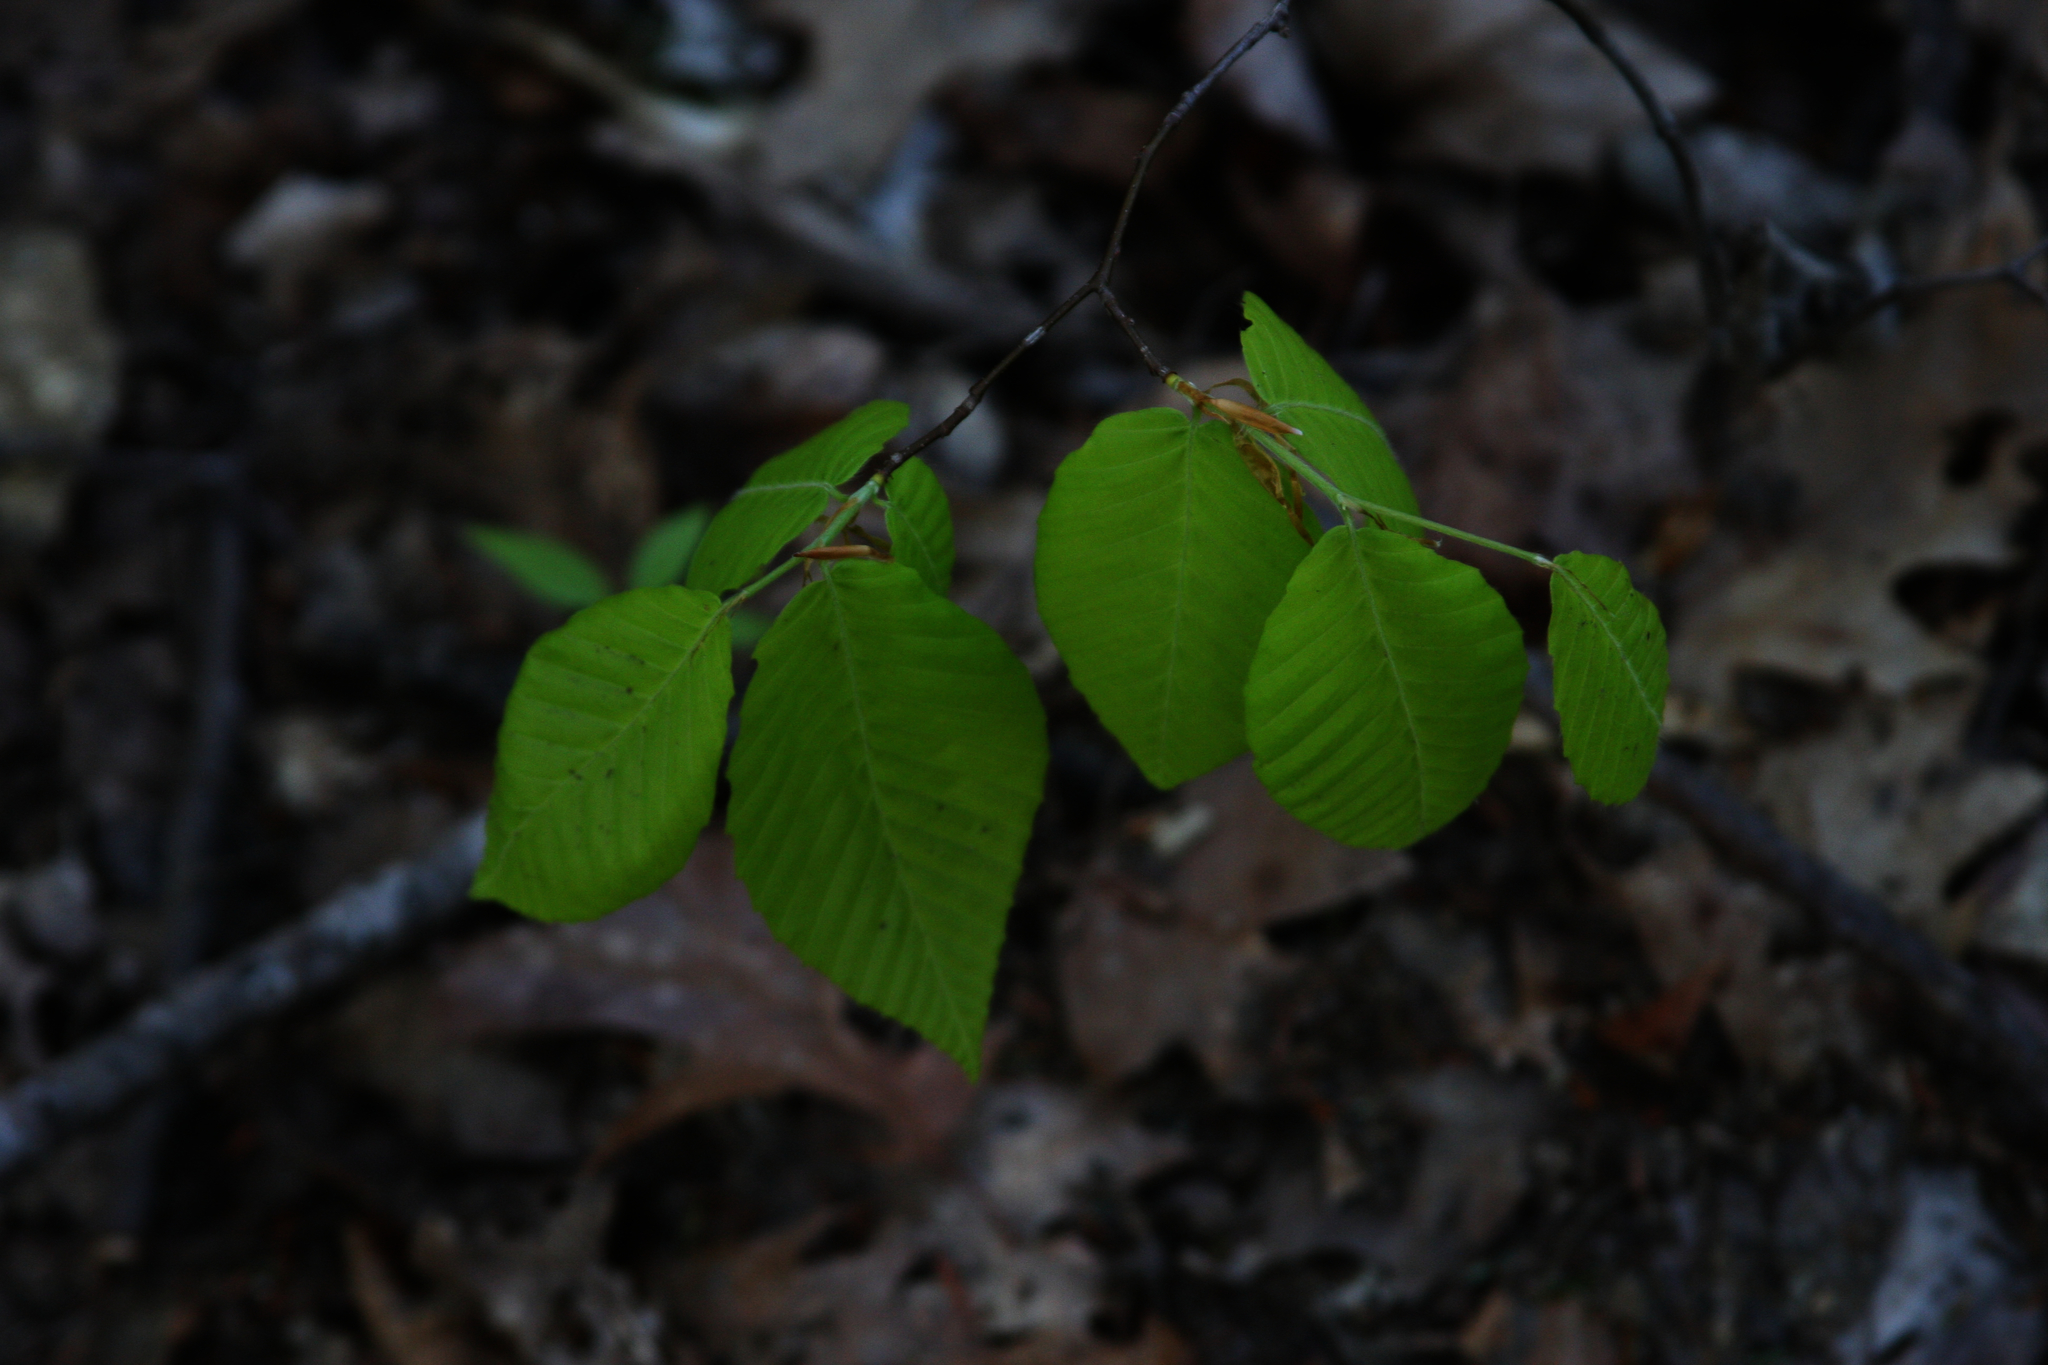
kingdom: Plantae
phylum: Tracheophyta
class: Magnoliopsida
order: Fagales
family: Fagaceae
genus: Fagus
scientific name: Fagus grandifolia
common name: American beech
